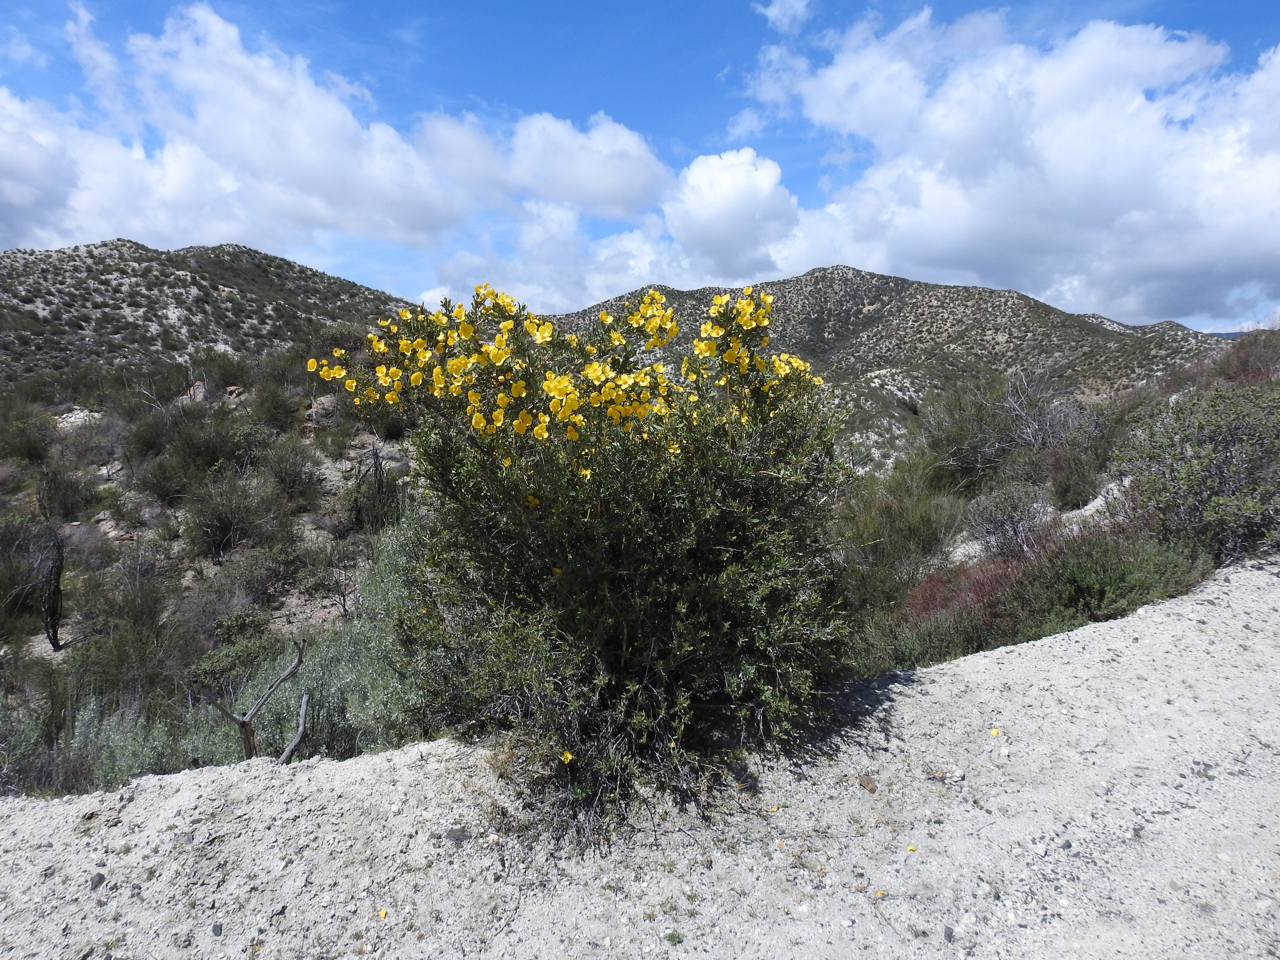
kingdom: Plantae
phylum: Tracheophyta
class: Magnoliopsida
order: Ranunculales
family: Papaveraceae
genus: Dendromecon
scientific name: Dendromecon rigida
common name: Tree poppy
